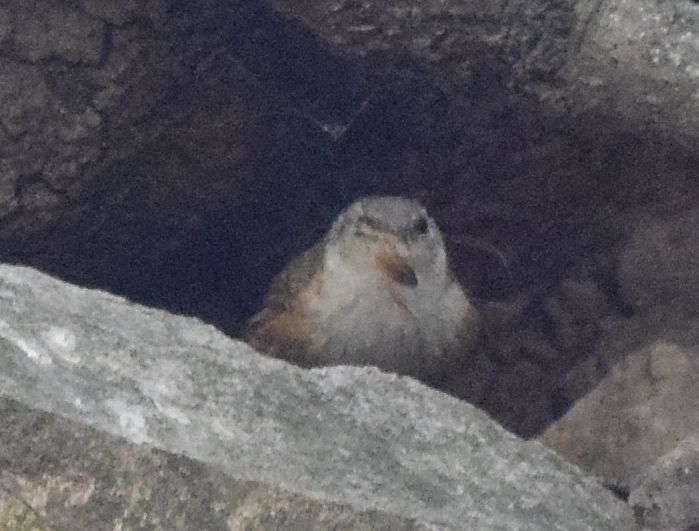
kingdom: Animalia
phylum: Chordata
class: Aves
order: Passeriformes
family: Troglodytidae
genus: Catherpes
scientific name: Catherpes mexicanus
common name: Canyon wren
